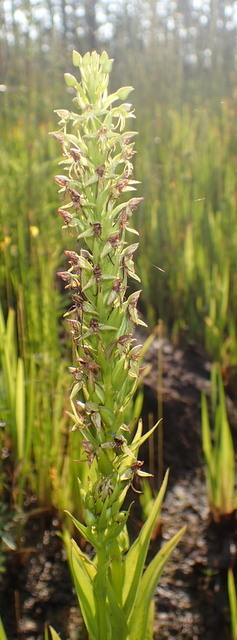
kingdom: Plantae
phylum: Tracheophyta
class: Liliopsida
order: Asparagales
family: Orchidaceae
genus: Habenaria
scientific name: Habenaria repens
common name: Water orchid
